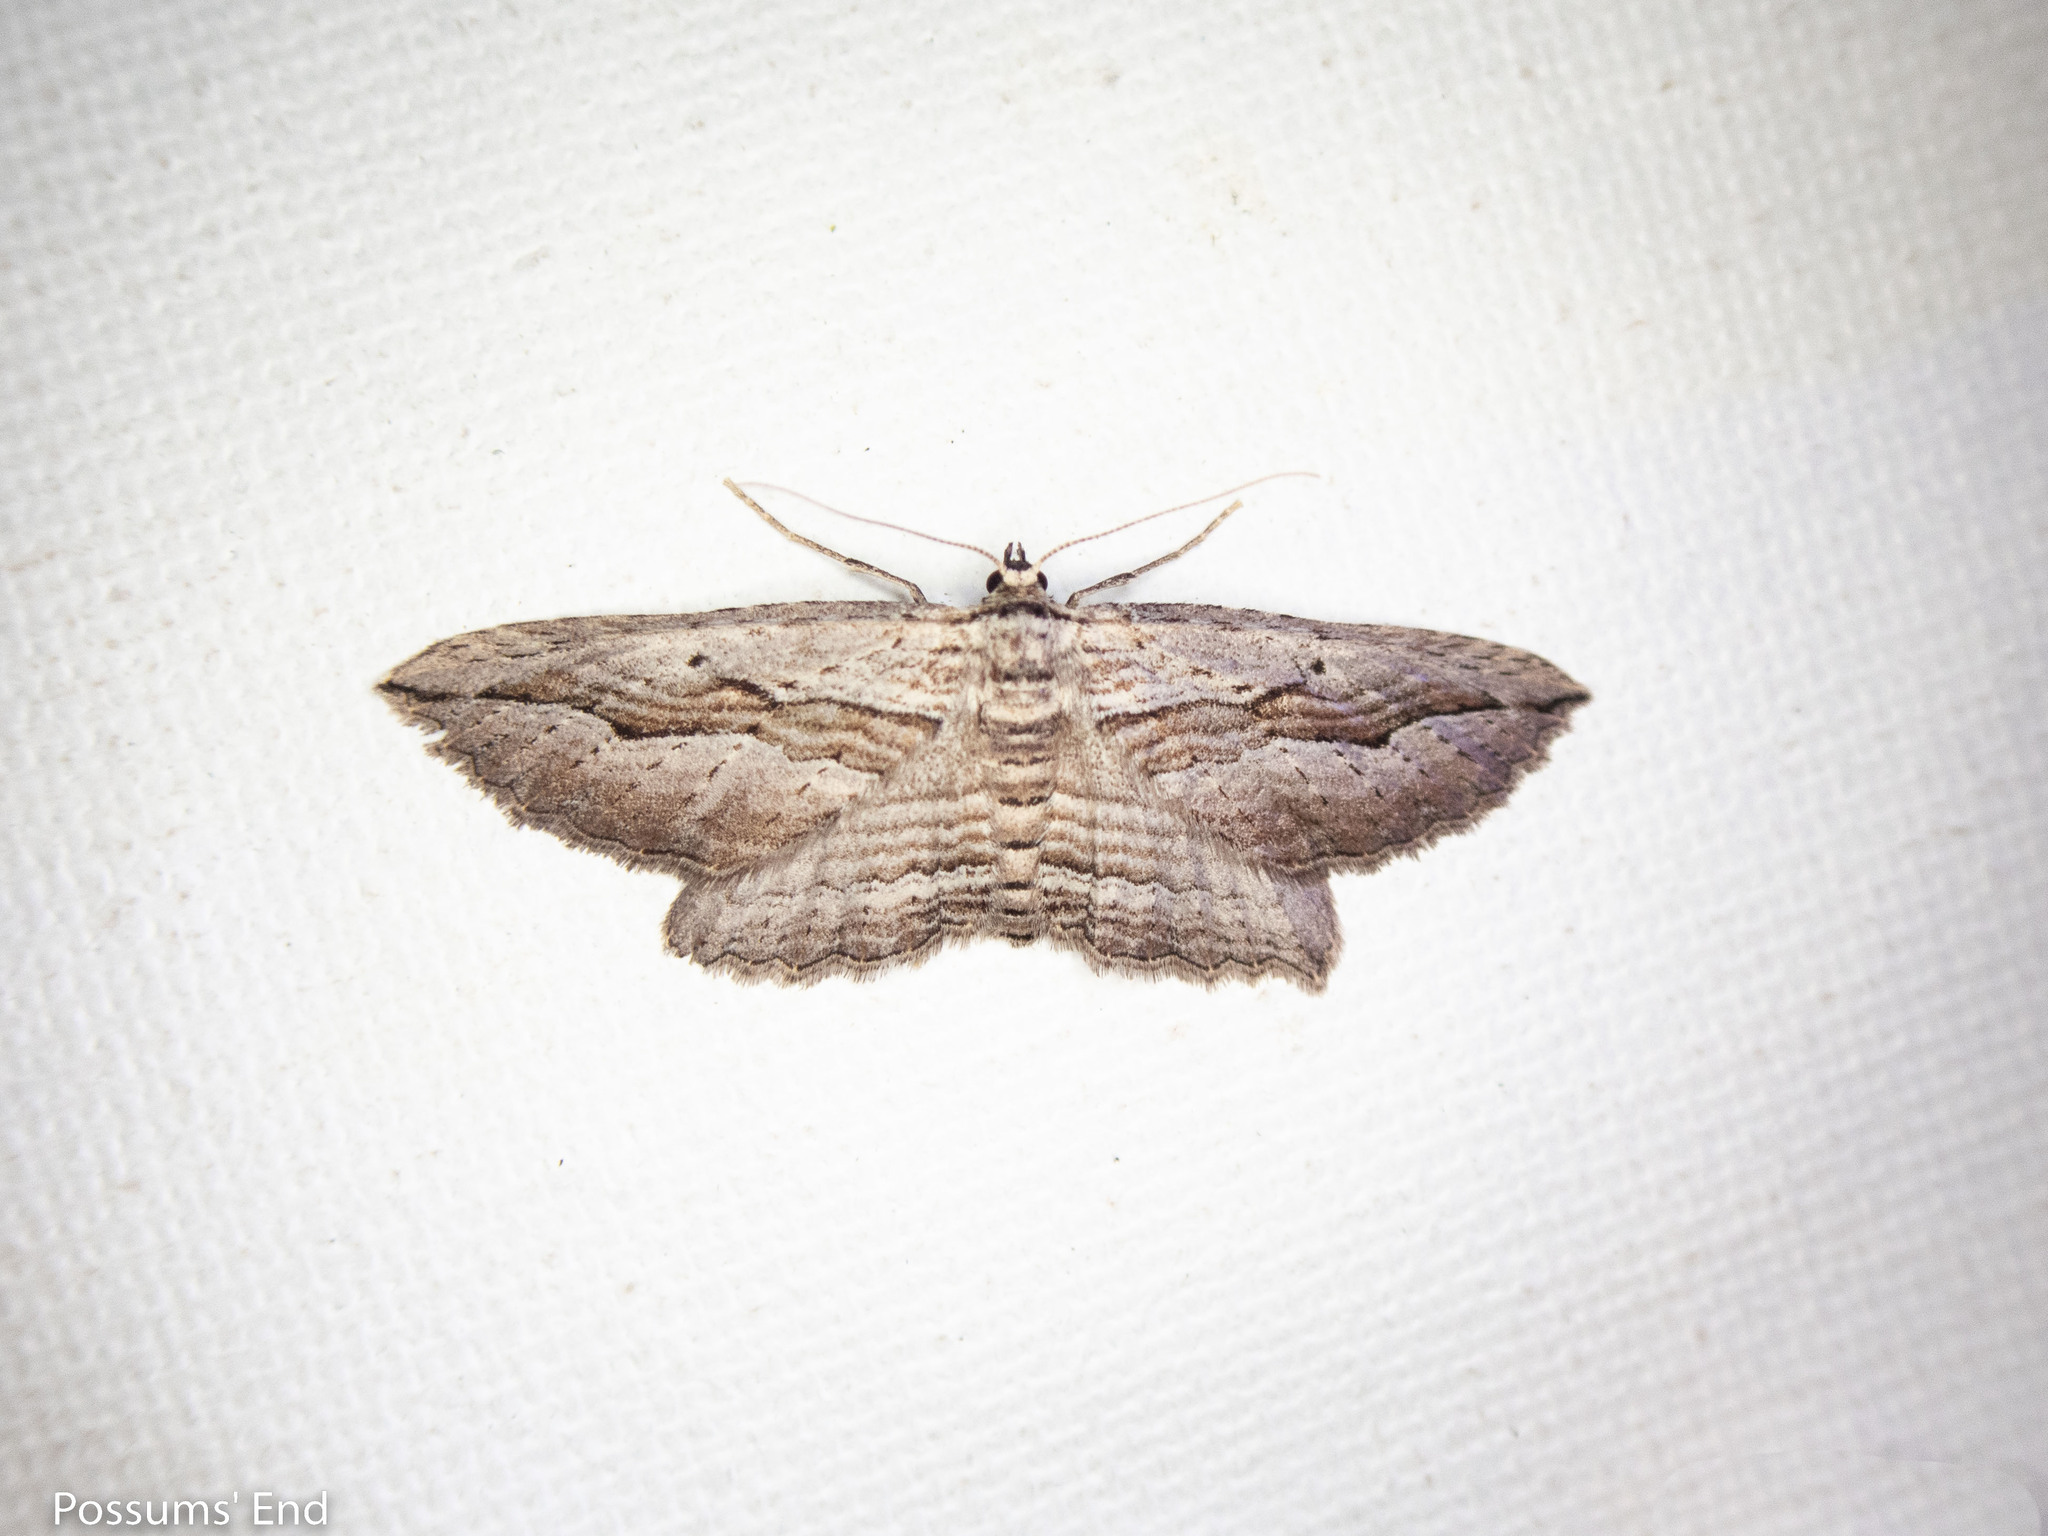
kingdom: Animalia
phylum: Arthropoda
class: Insecta
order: Lepidoptera
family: Geometridae
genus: Aponotoreas
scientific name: Aponotoreas dissimilis
